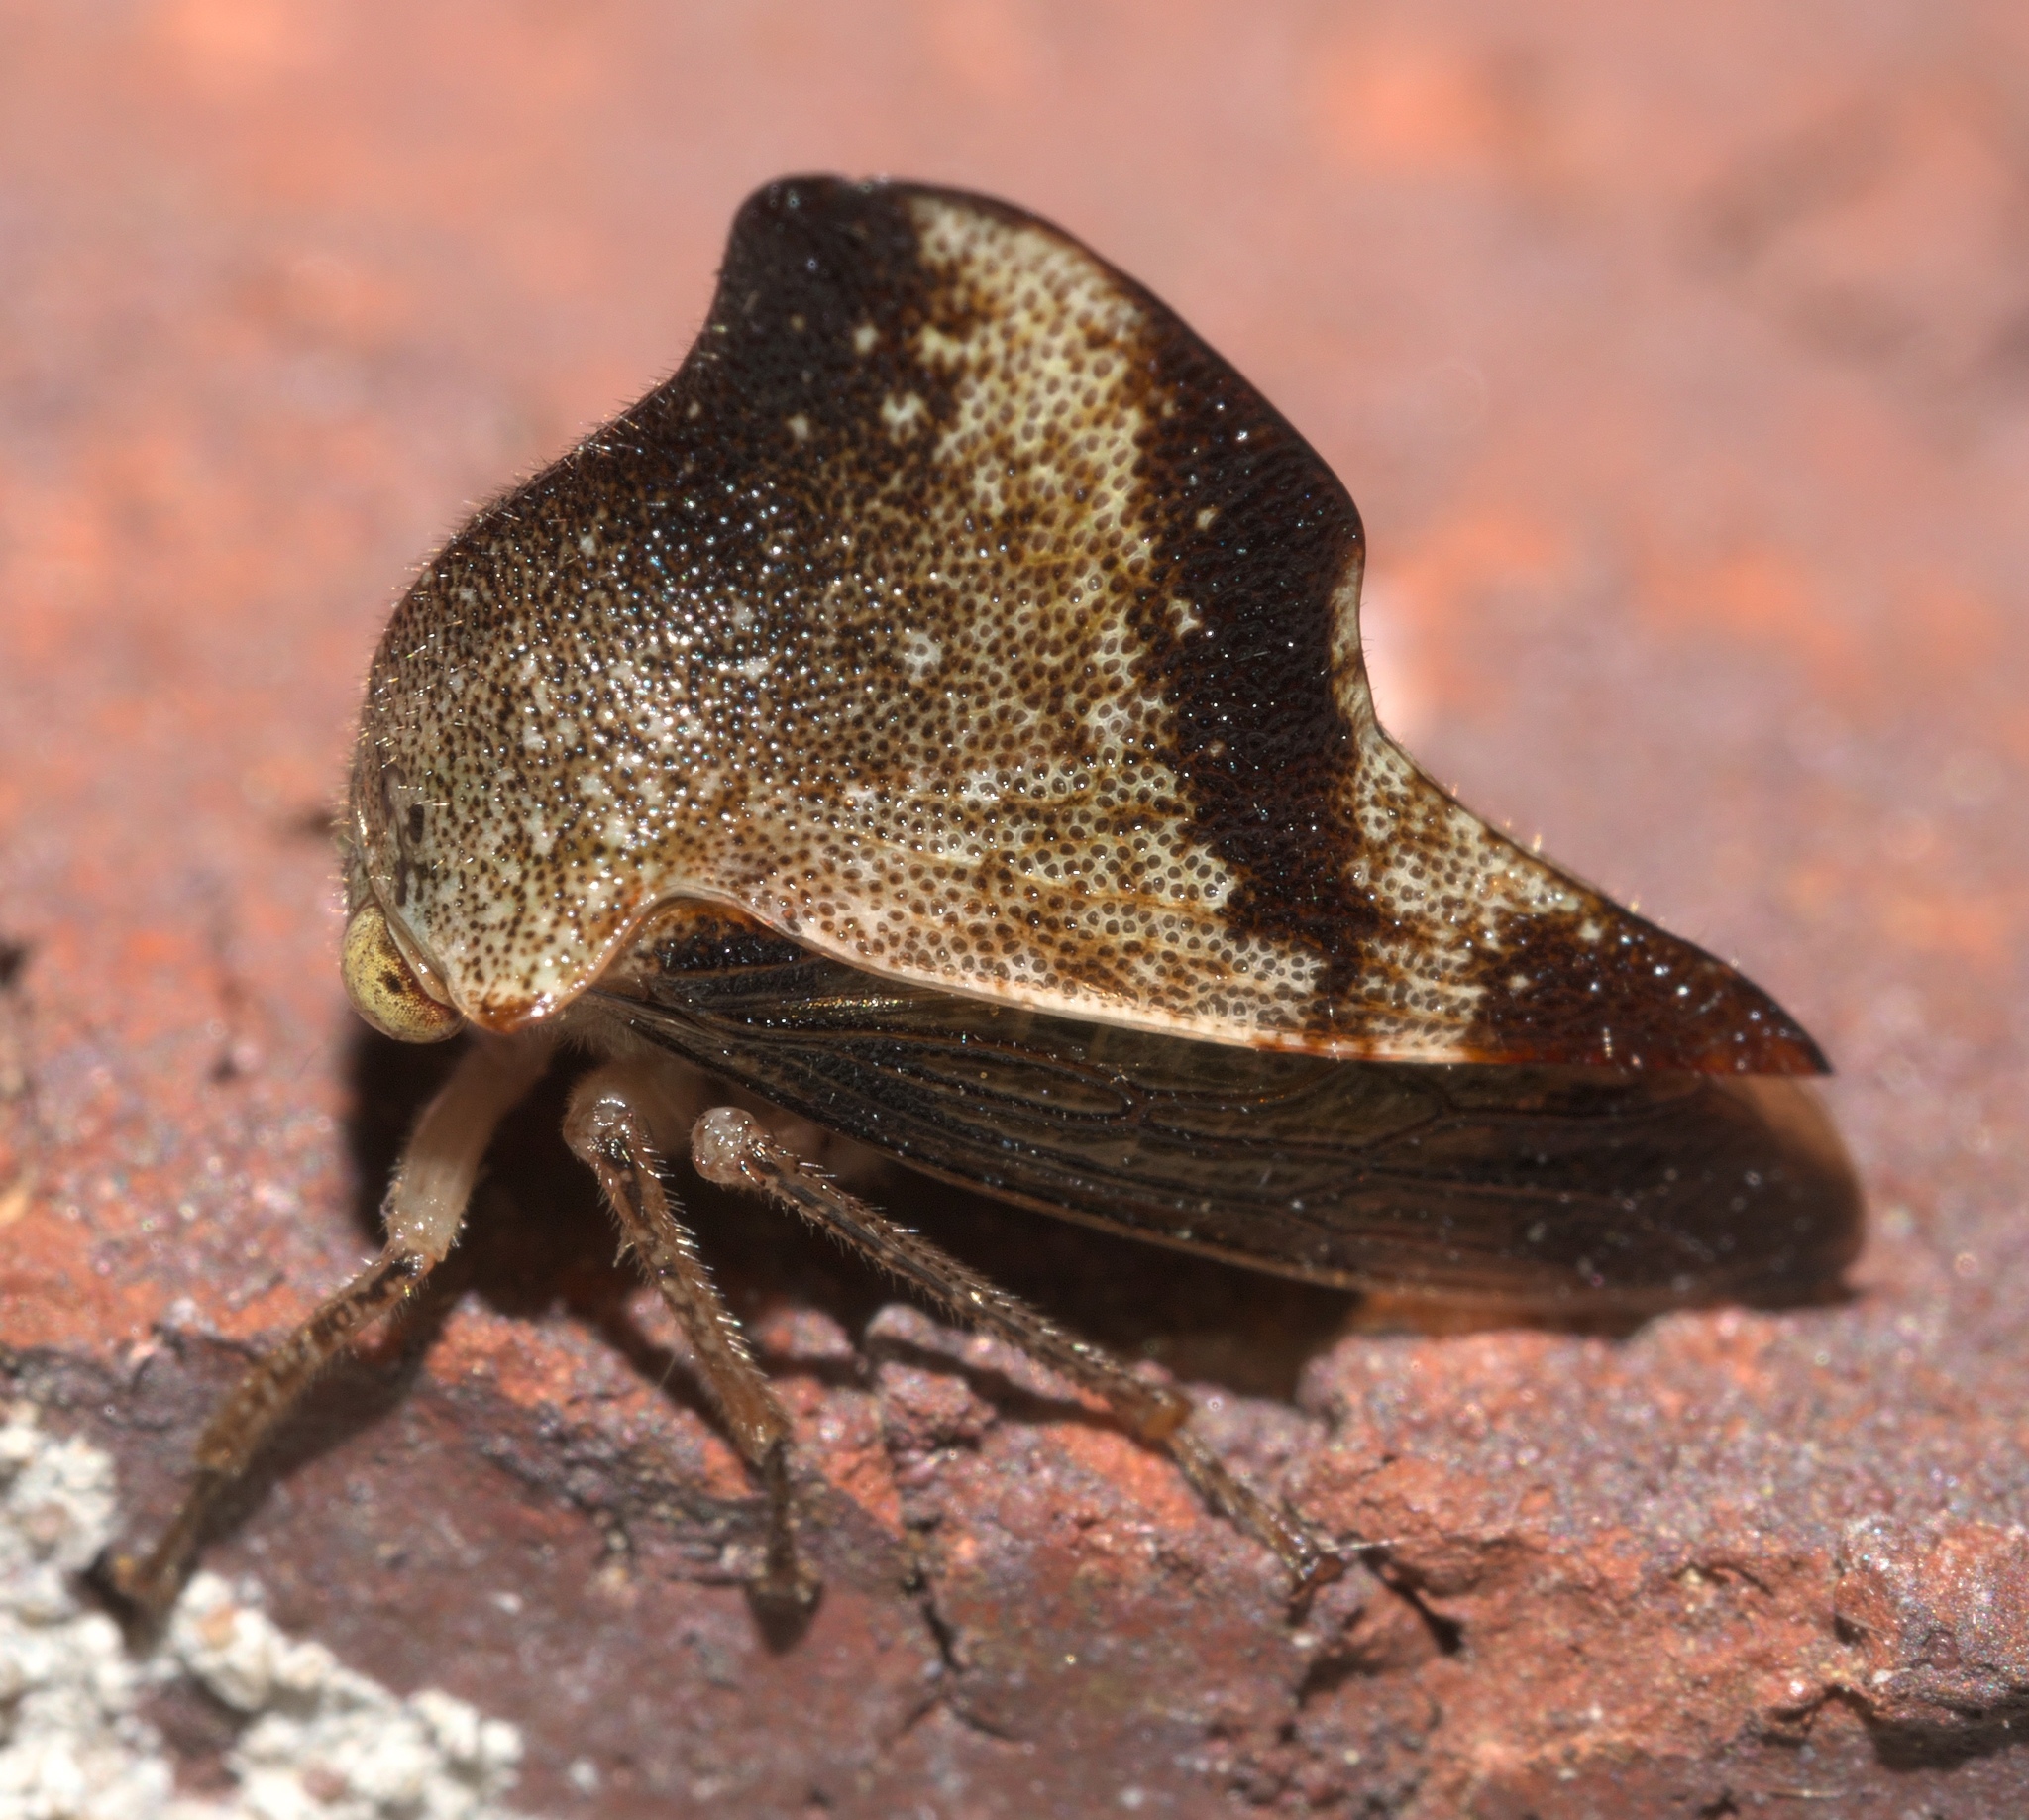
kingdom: Animalia
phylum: Arthropoda
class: Insecta
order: Hemiptera
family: Membracidae
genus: Helonica
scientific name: Helonica excelsa
